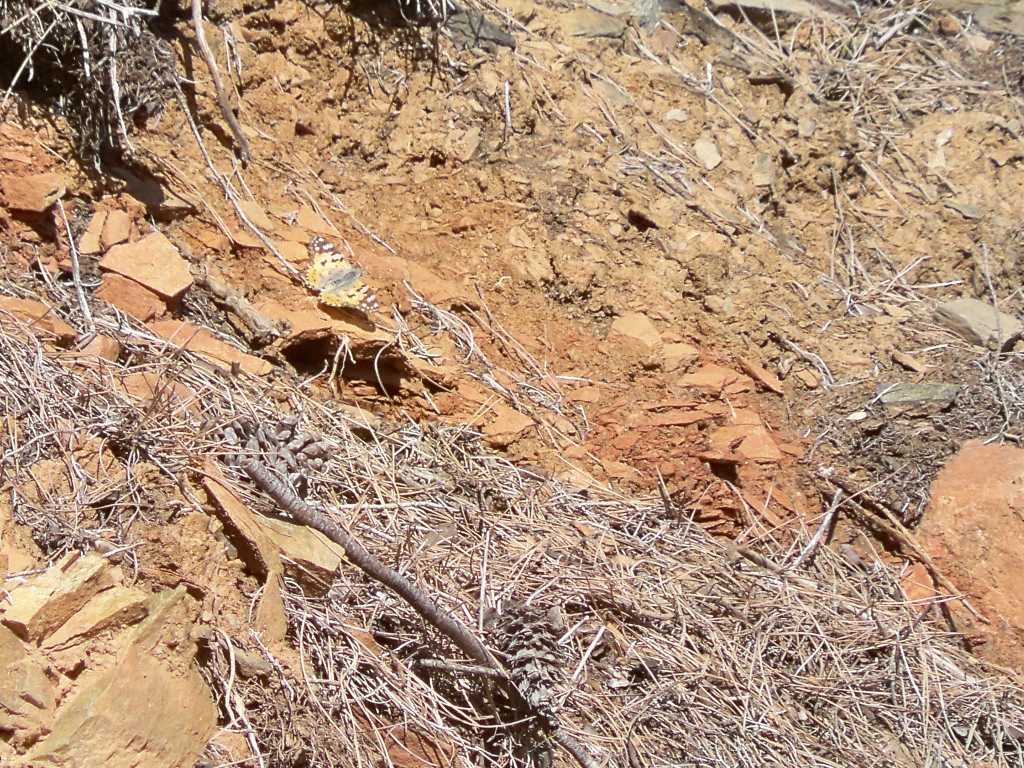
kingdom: Animalia
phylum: Arthropoda
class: Insecta
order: Lepidoptera
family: Nymphalidae
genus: Vanessa
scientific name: Vanessa cardui
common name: Painted lady
